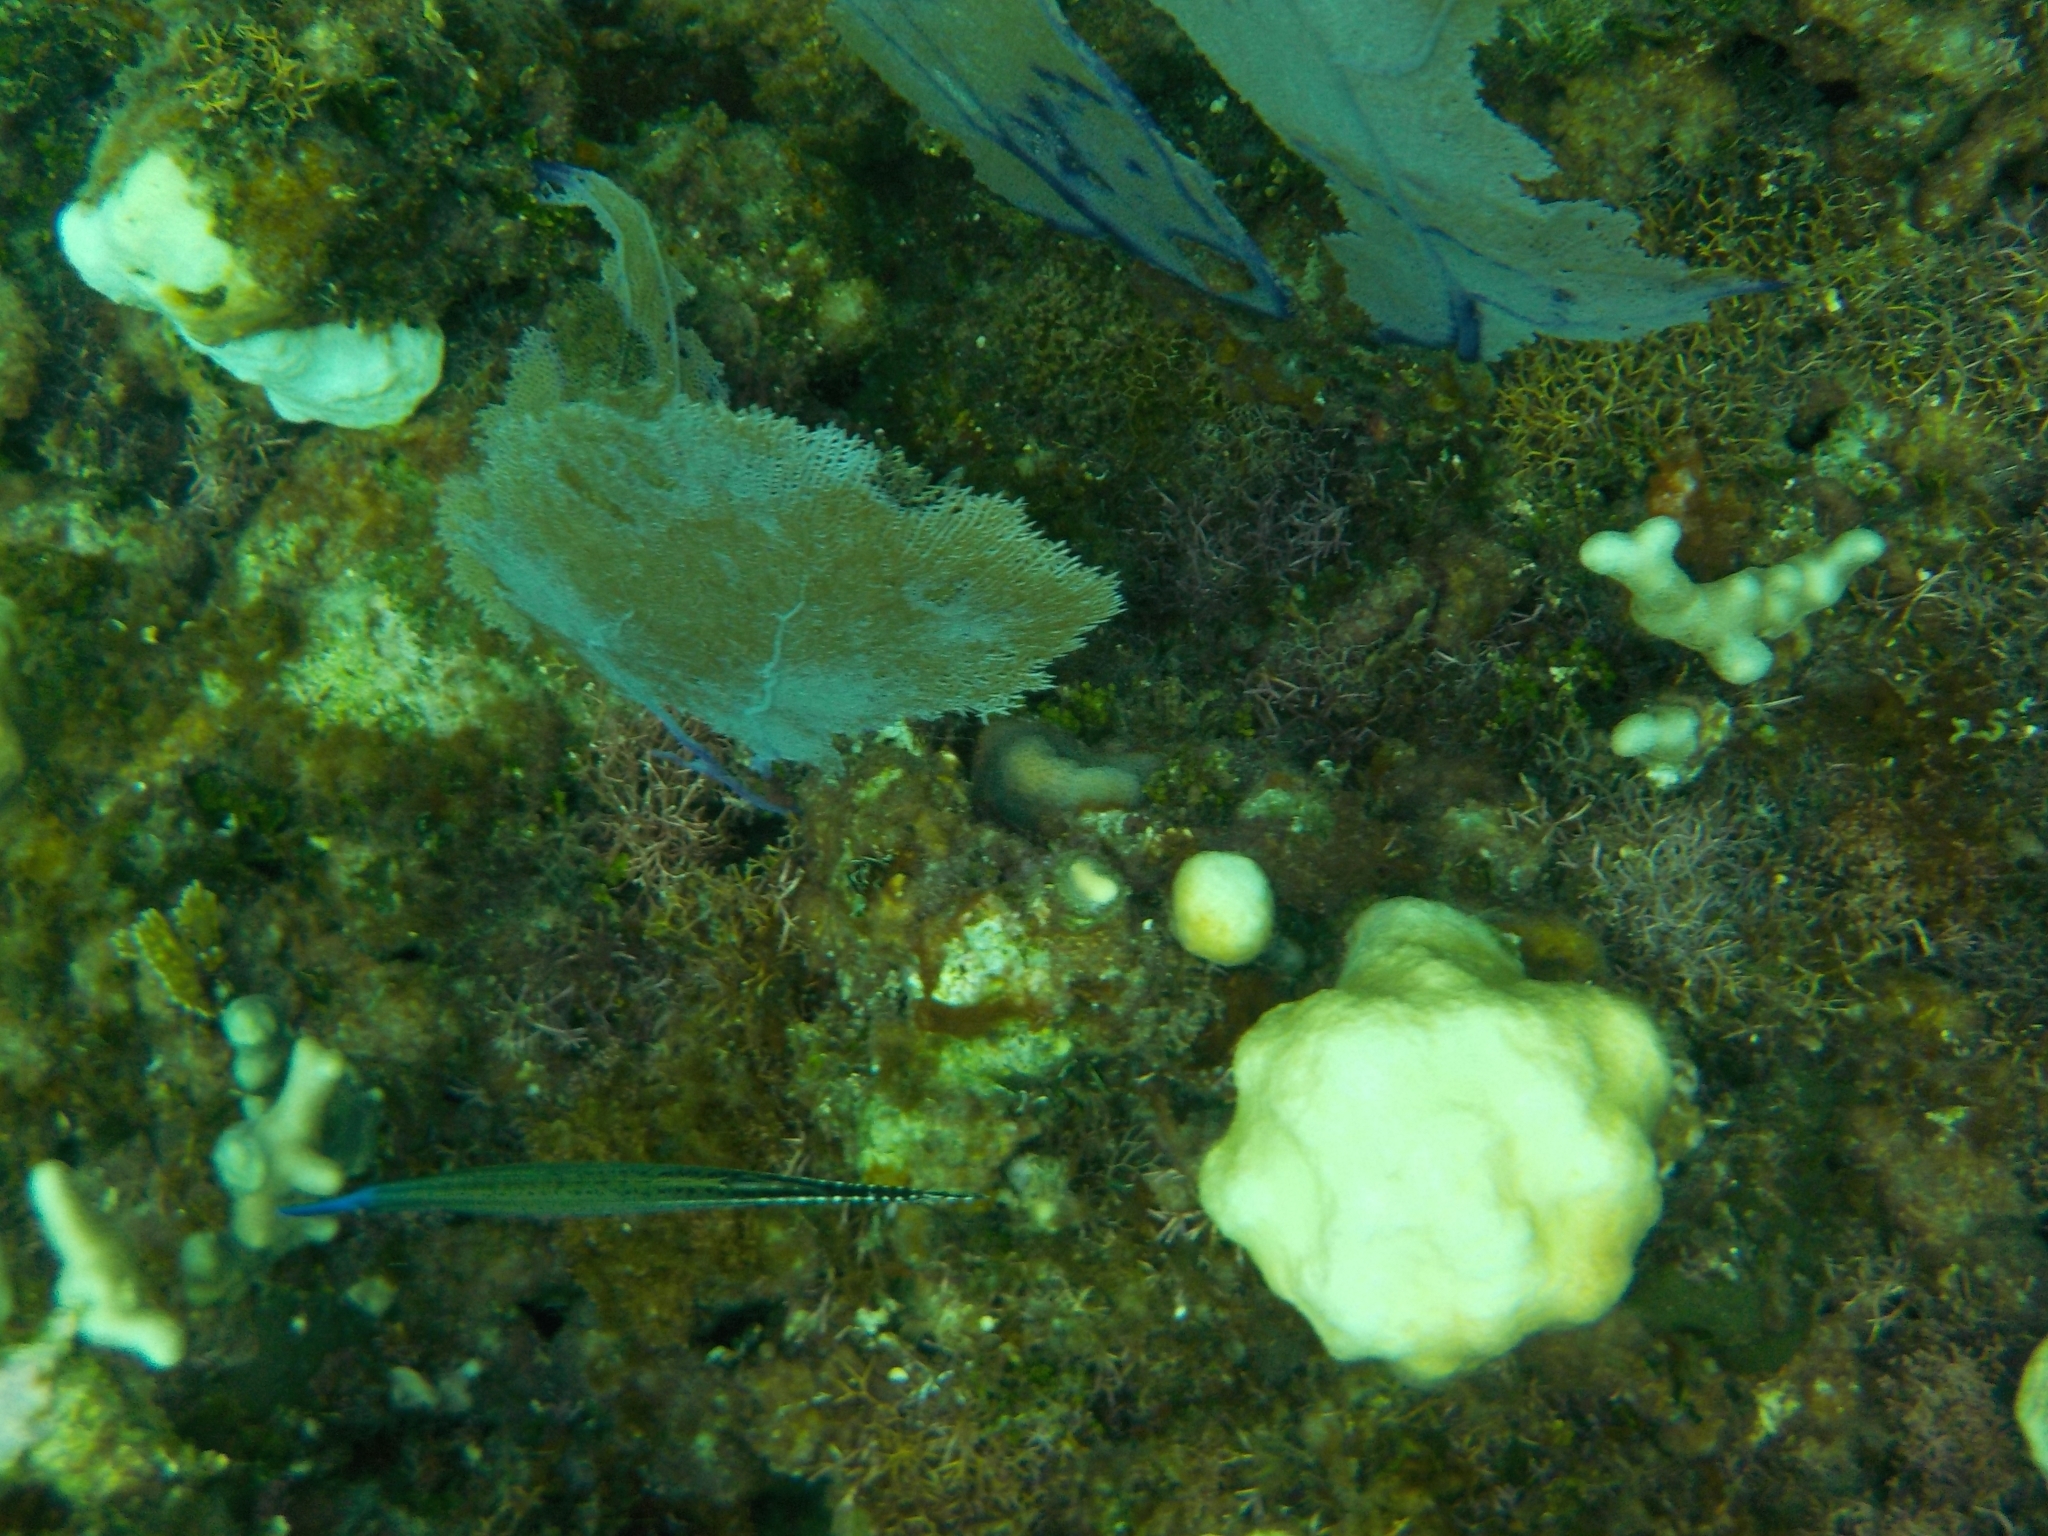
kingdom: Animalia
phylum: Chordata
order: Syngnathiformes
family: Aulostomidae
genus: Aulostomus
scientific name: Aulostomus maculatus
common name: West atlantic trumpetfish
